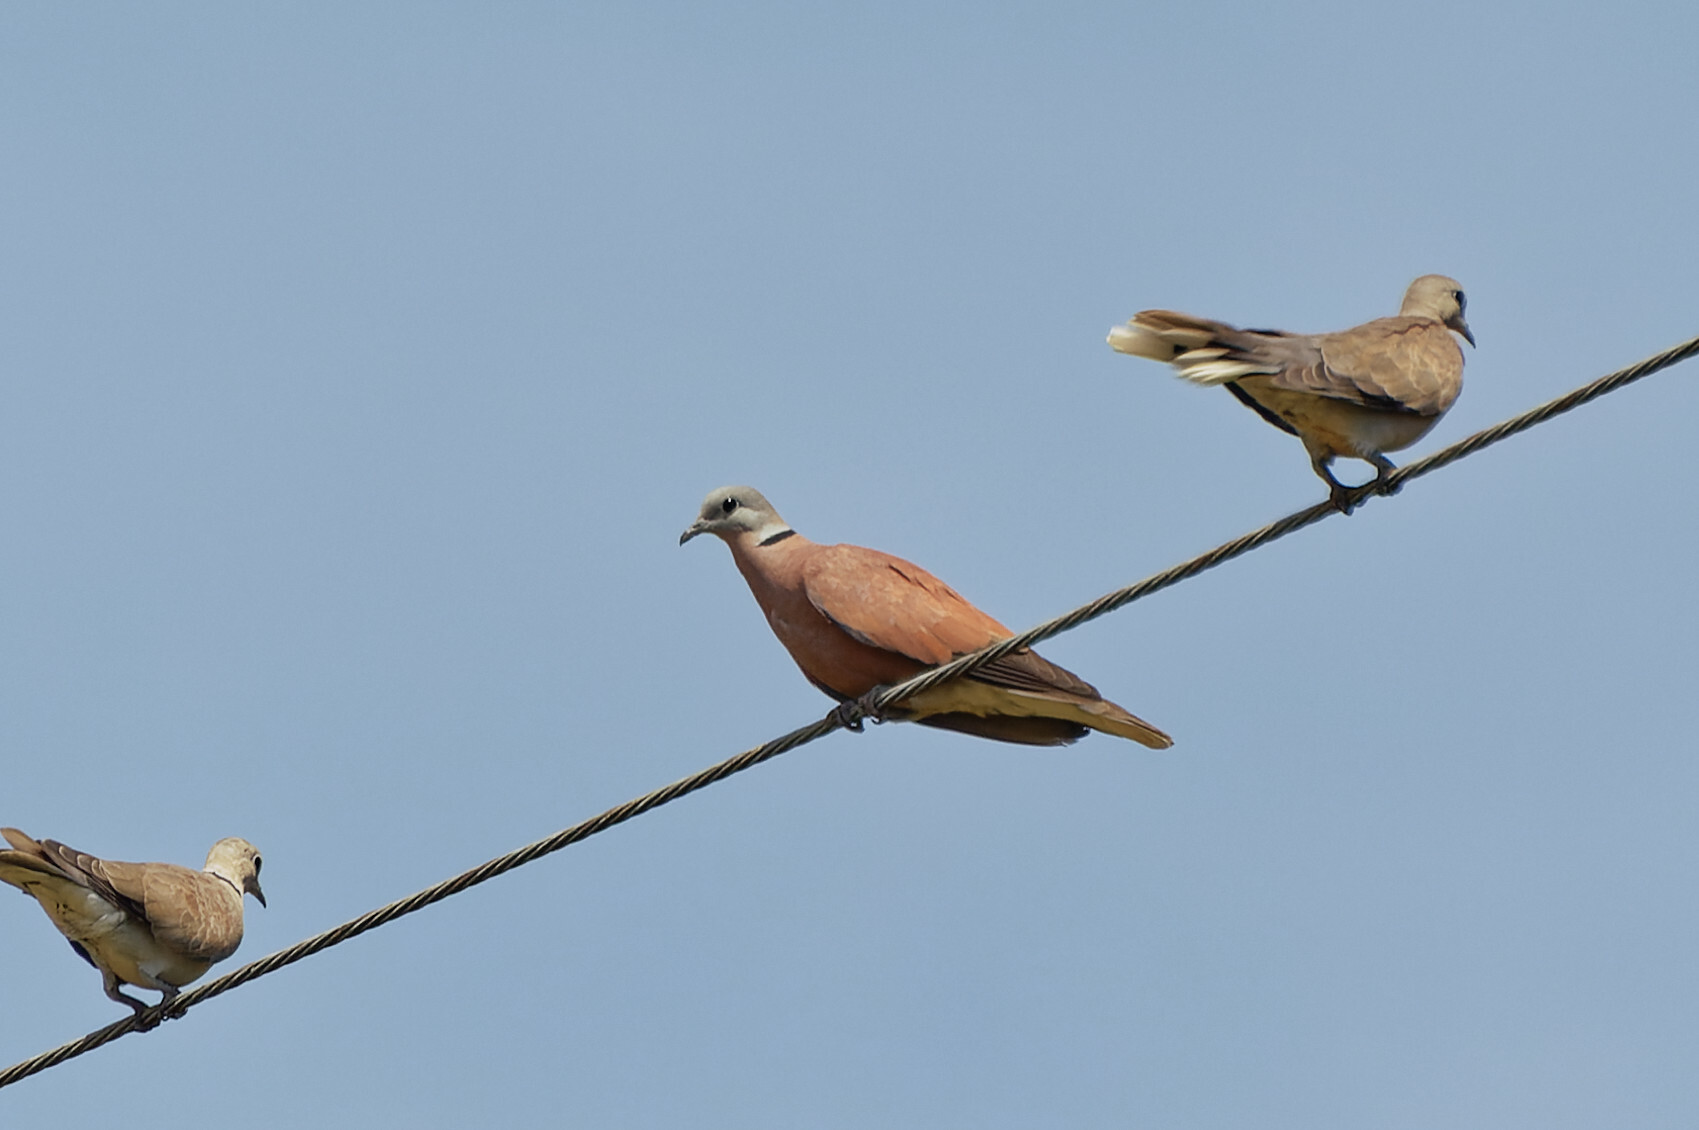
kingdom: Animalia
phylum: Chordata
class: Aves
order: Columbiformes
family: Columbidae
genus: Streptopelia
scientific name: Streptopelia tranquebarica
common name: Red turtle dove
